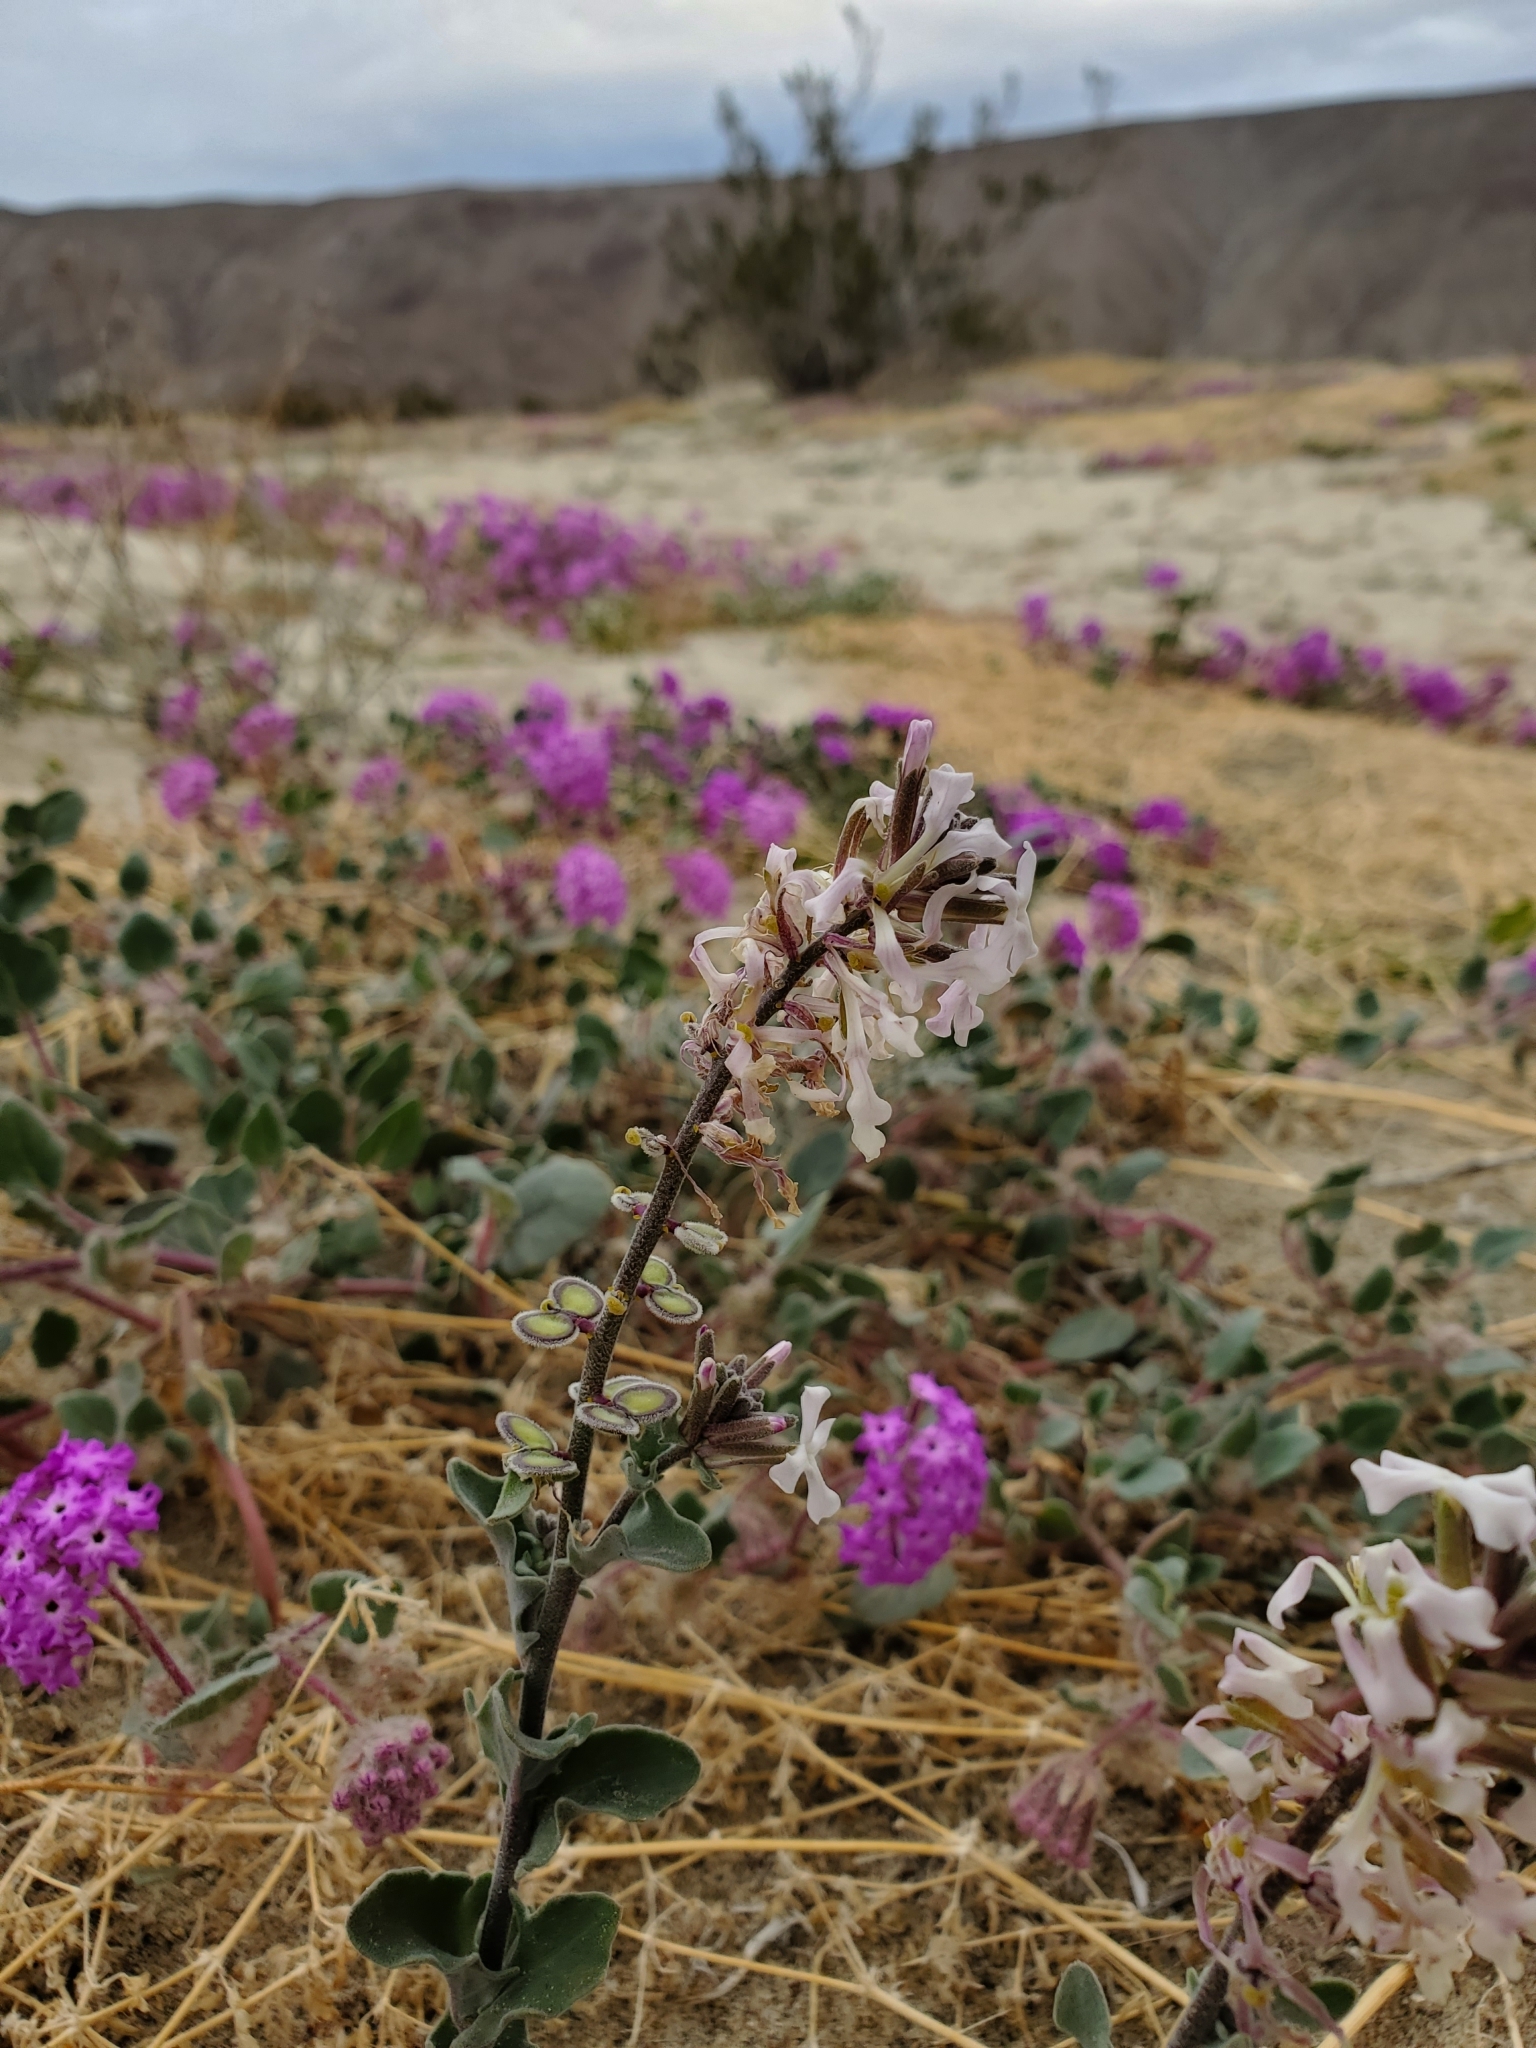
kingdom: Plantae
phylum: Tracheophyta
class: Magnoliopsida
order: Brassicales
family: Brassicaceae
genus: Dithyrea
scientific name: Dithyrea californica
